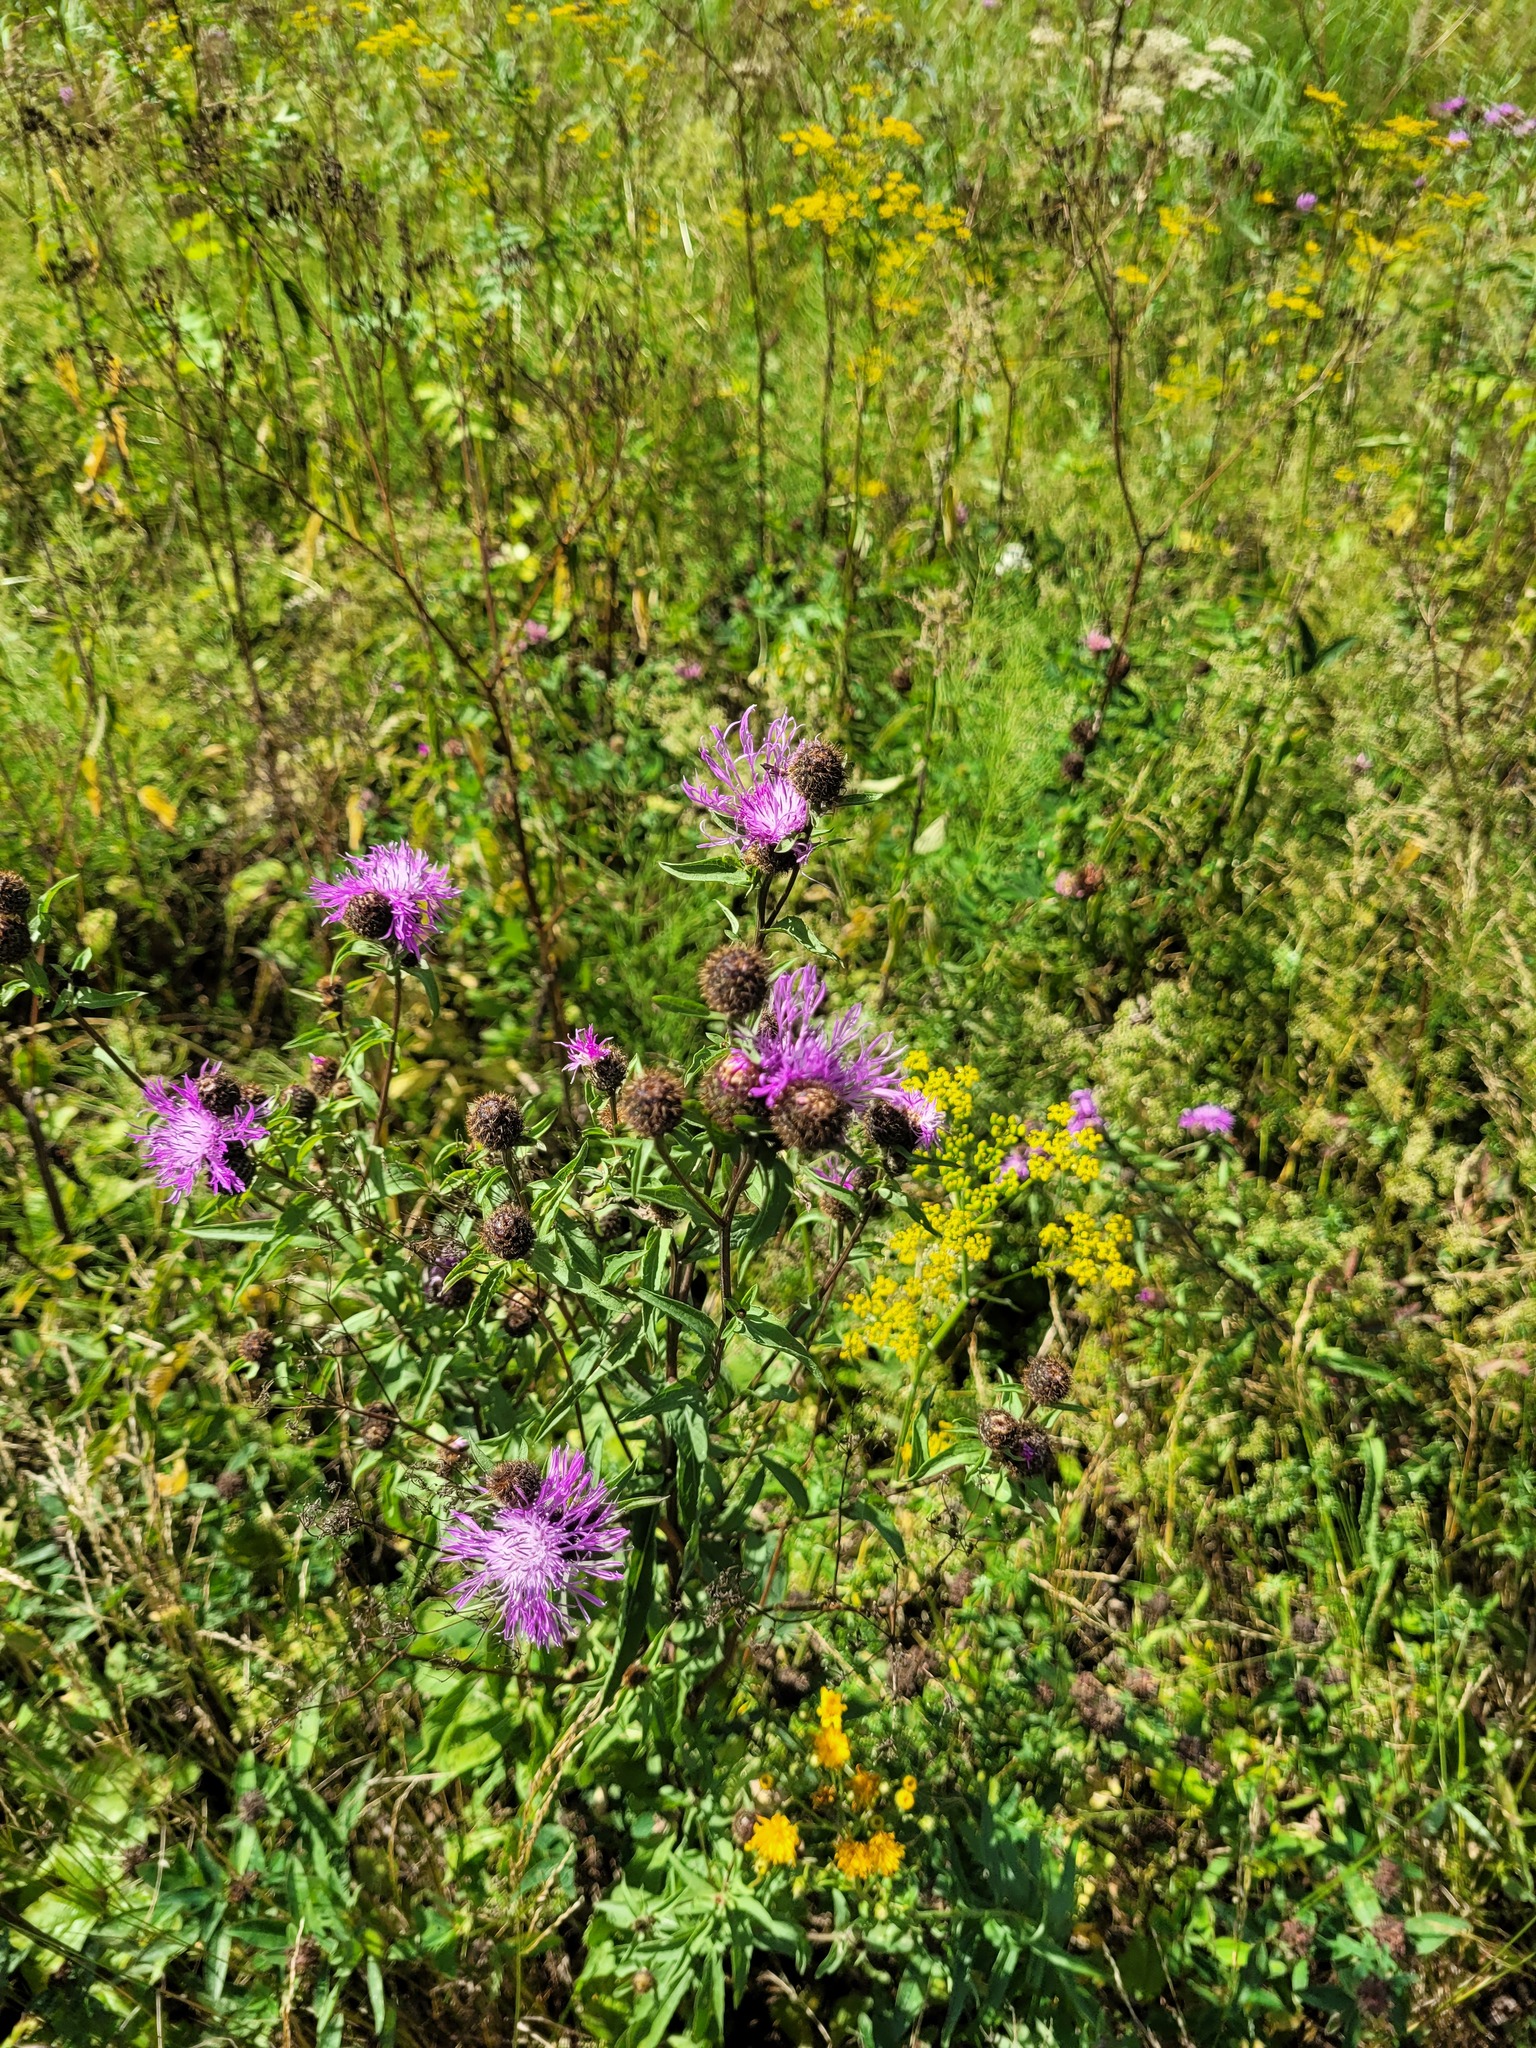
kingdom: Plantae
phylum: Tracheophyta
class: Magnoliopsida
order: Asterales
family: Asteraceae
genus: Centaurea
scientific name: Centaurea phrygia
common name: Wig knapweed
